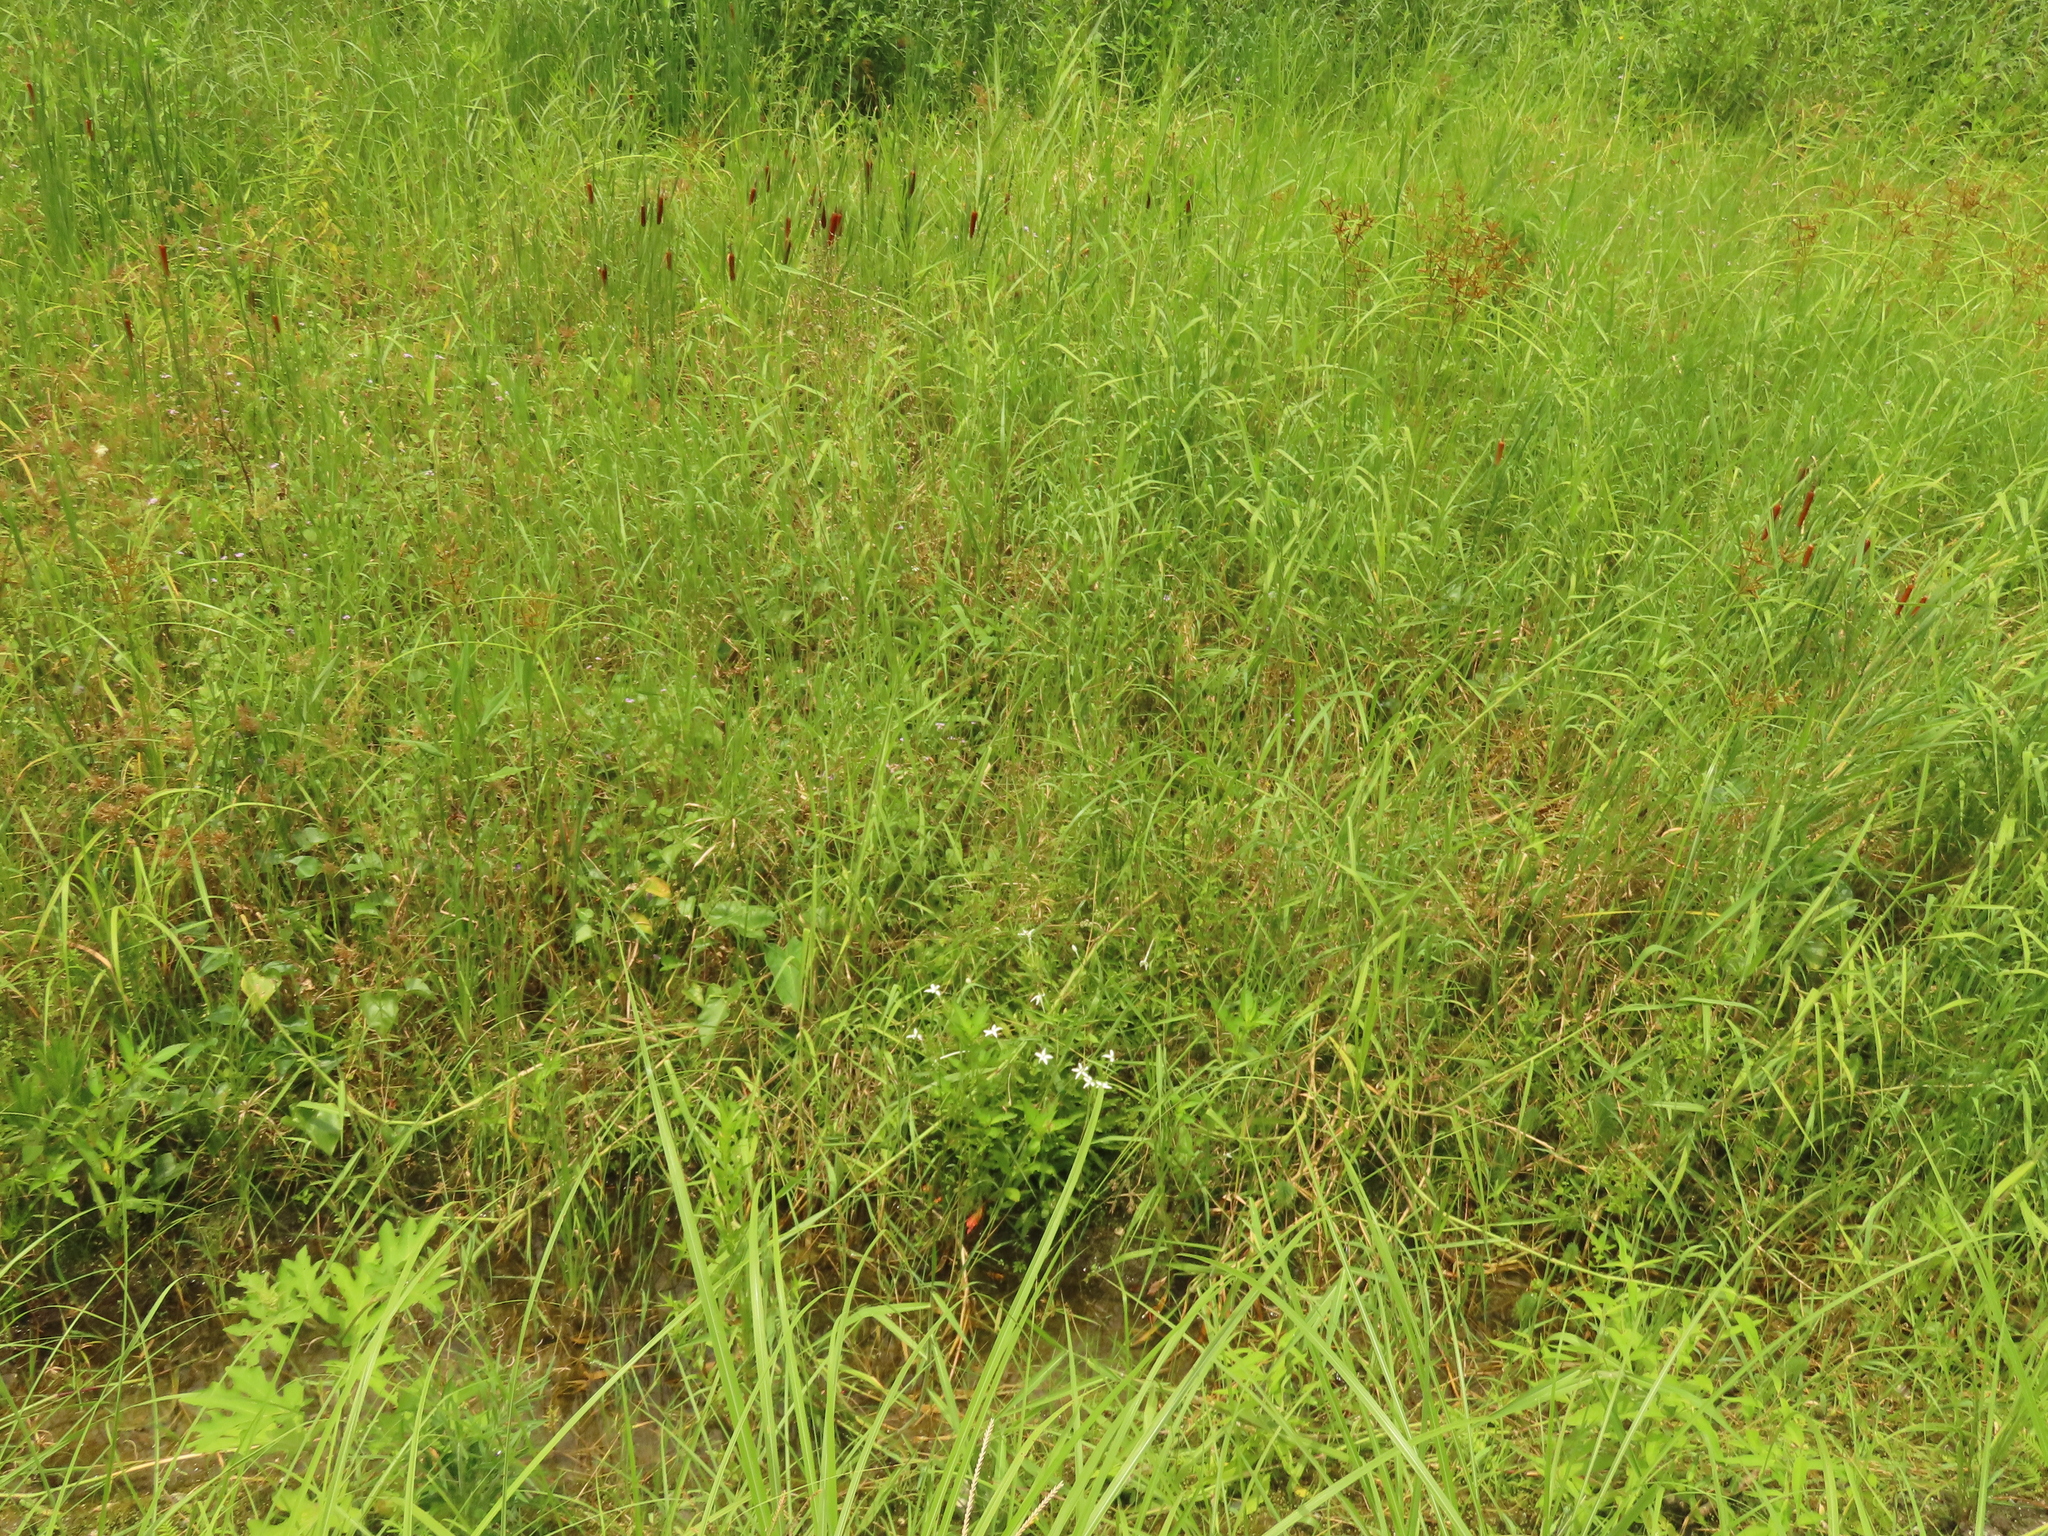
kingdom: Plantae
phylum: Tracheophyta
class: Magnoliopsida
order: Asterales
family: Campanulaceae
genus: Hippobroma
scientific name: Hippobroma longiflora
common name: Madamfate
